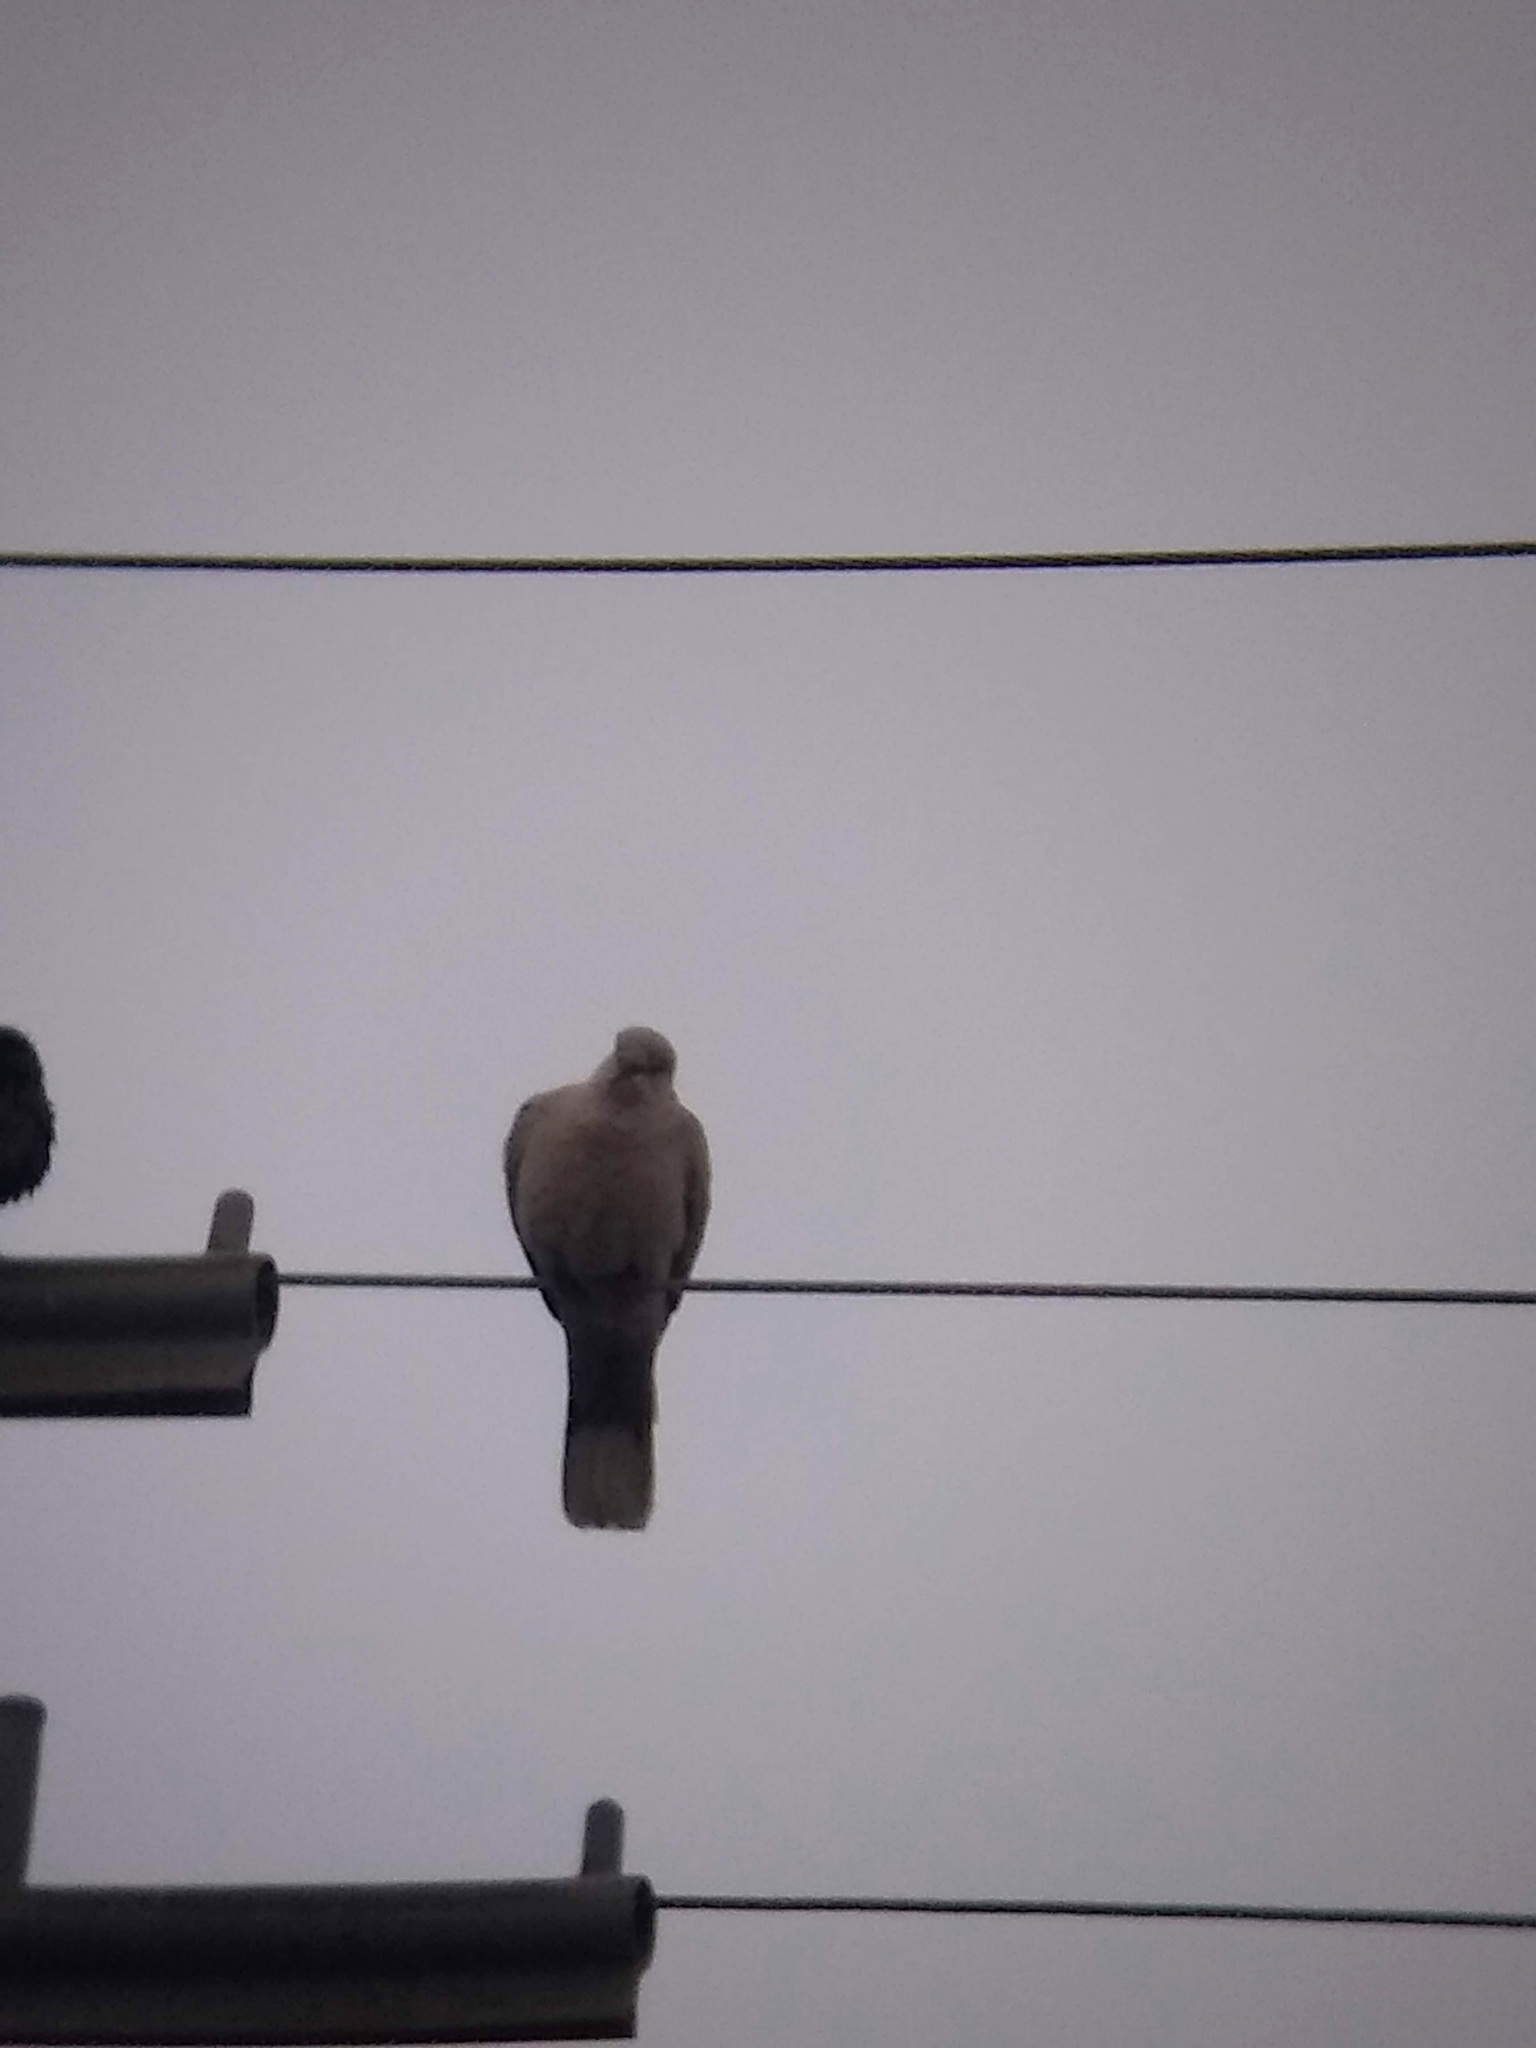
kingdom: Animalia
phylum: Chordata
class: Aves
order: Columbiformes
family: Columbidae
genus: Streptopelia
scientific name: Streptopelia decaocto
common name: Eurasian collared dove
